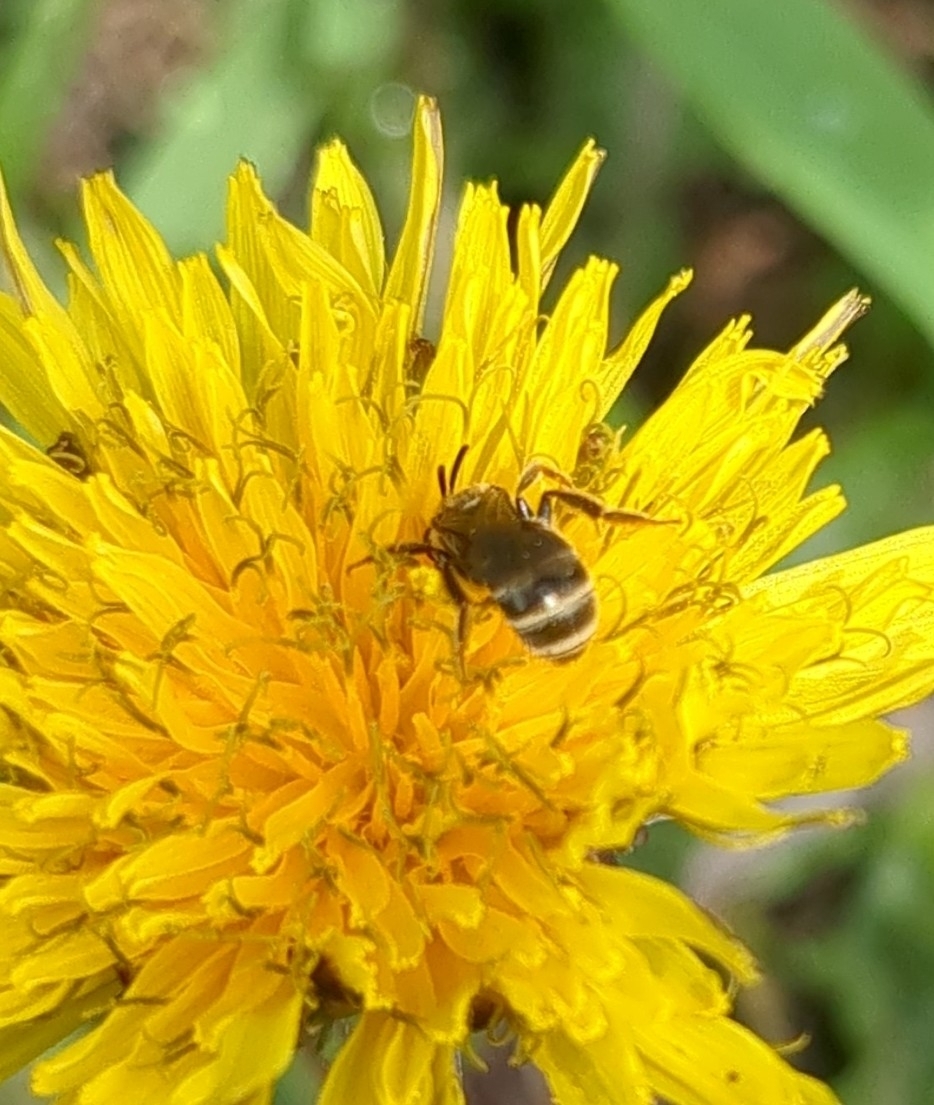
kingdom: Animalia
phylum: Arthropoda
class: Insecta
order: Hymenoptera
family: Halictidae
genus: Halictus
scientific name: Halictus confusus
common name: Southern bronze furrow bee
